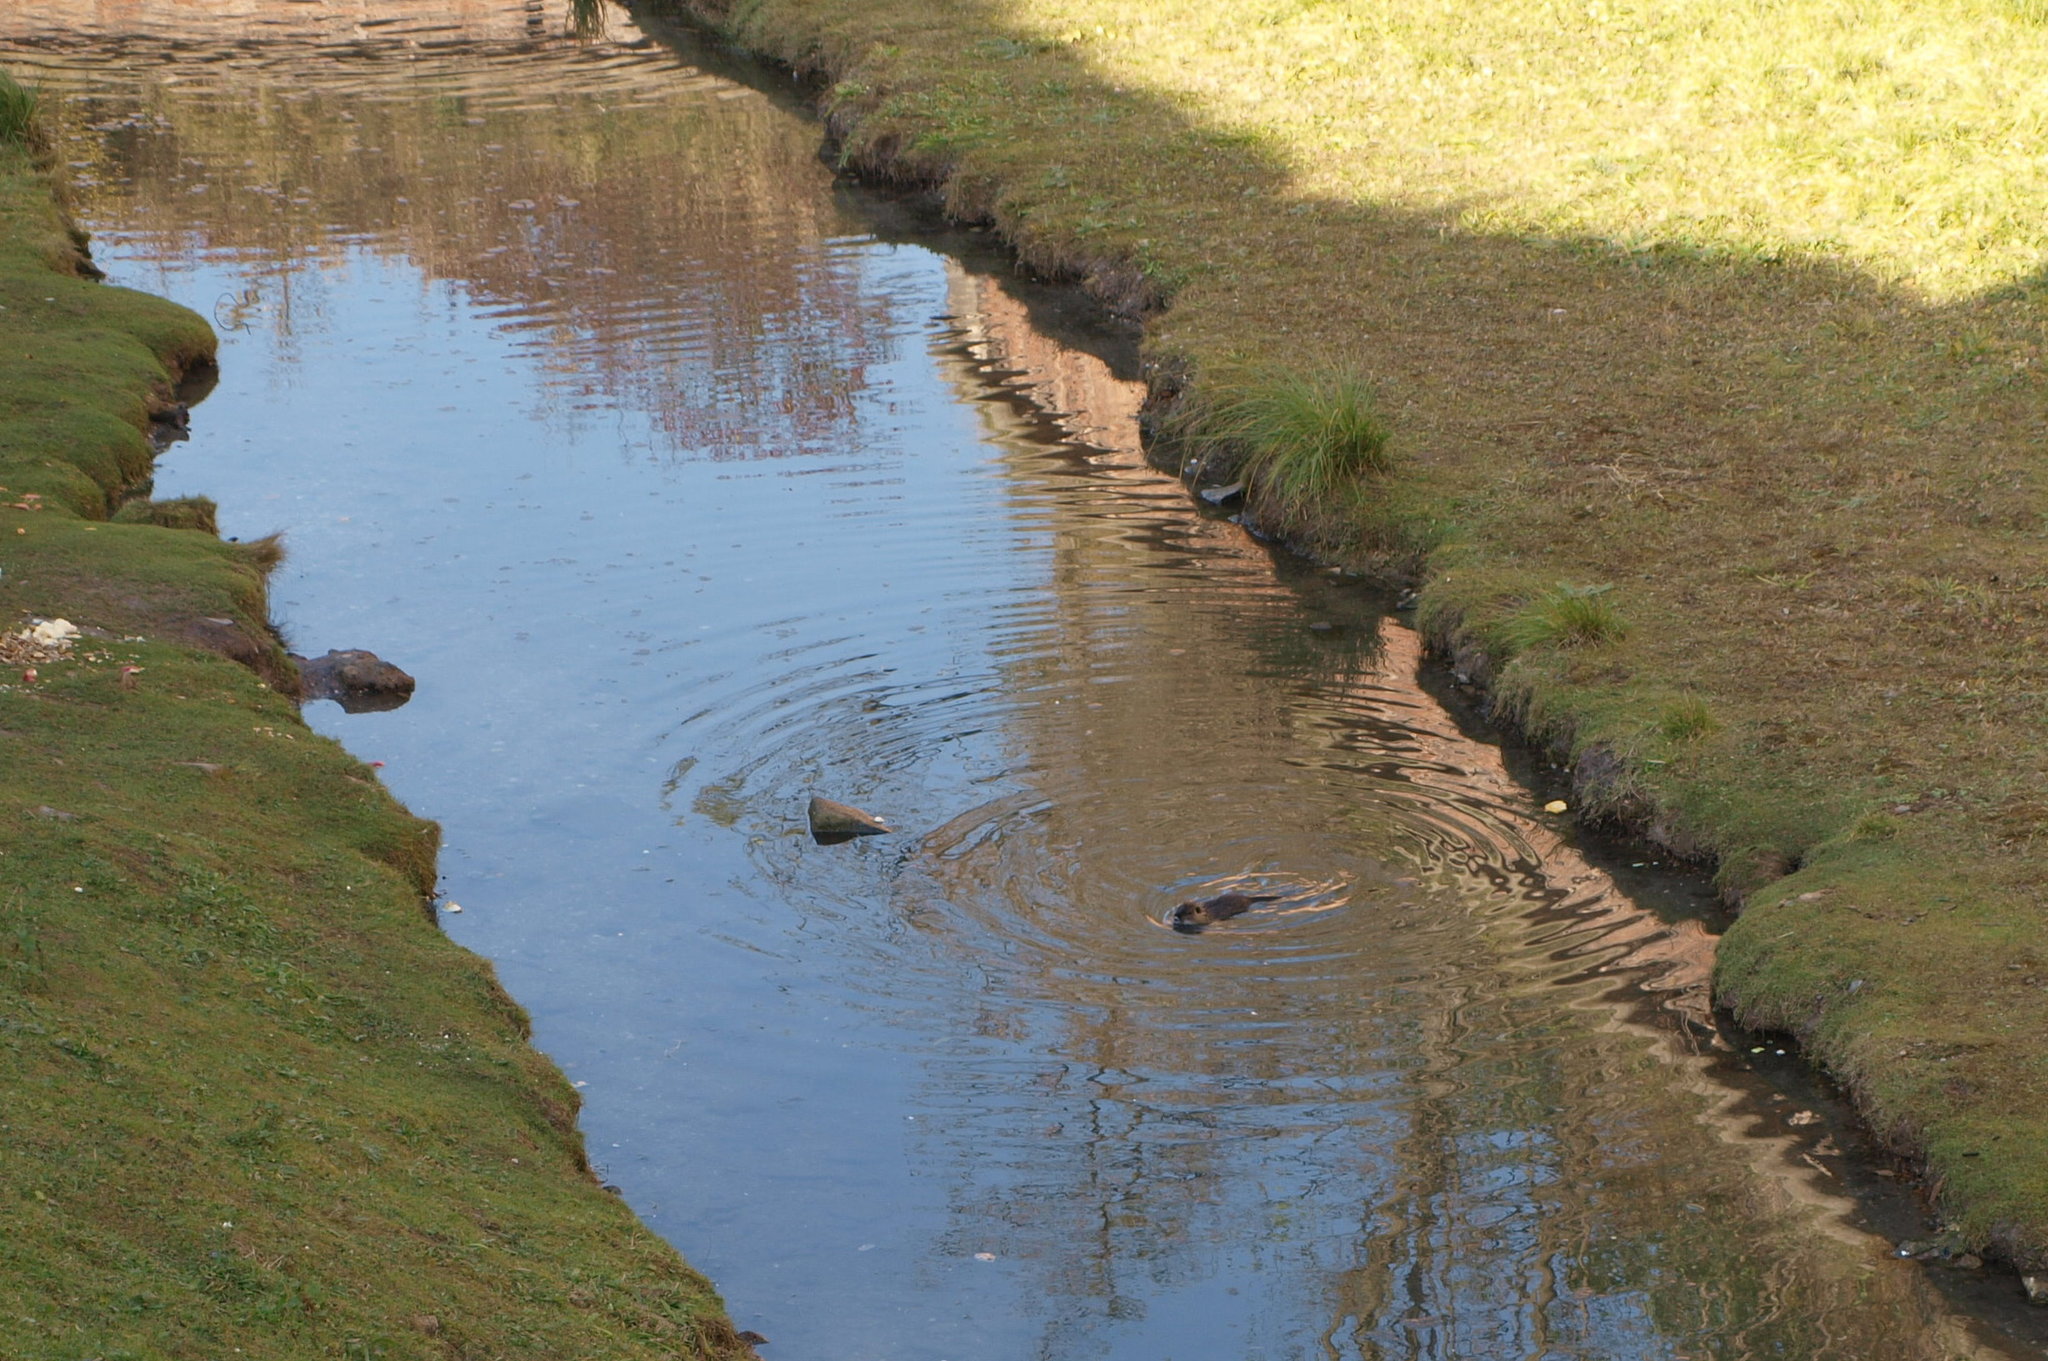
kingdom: Animalia
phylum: Chordata
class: Mammalia
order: Rodentia
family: Myocastoridae
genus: Myocastor
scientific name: Myocastor coypus
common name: Coypu
